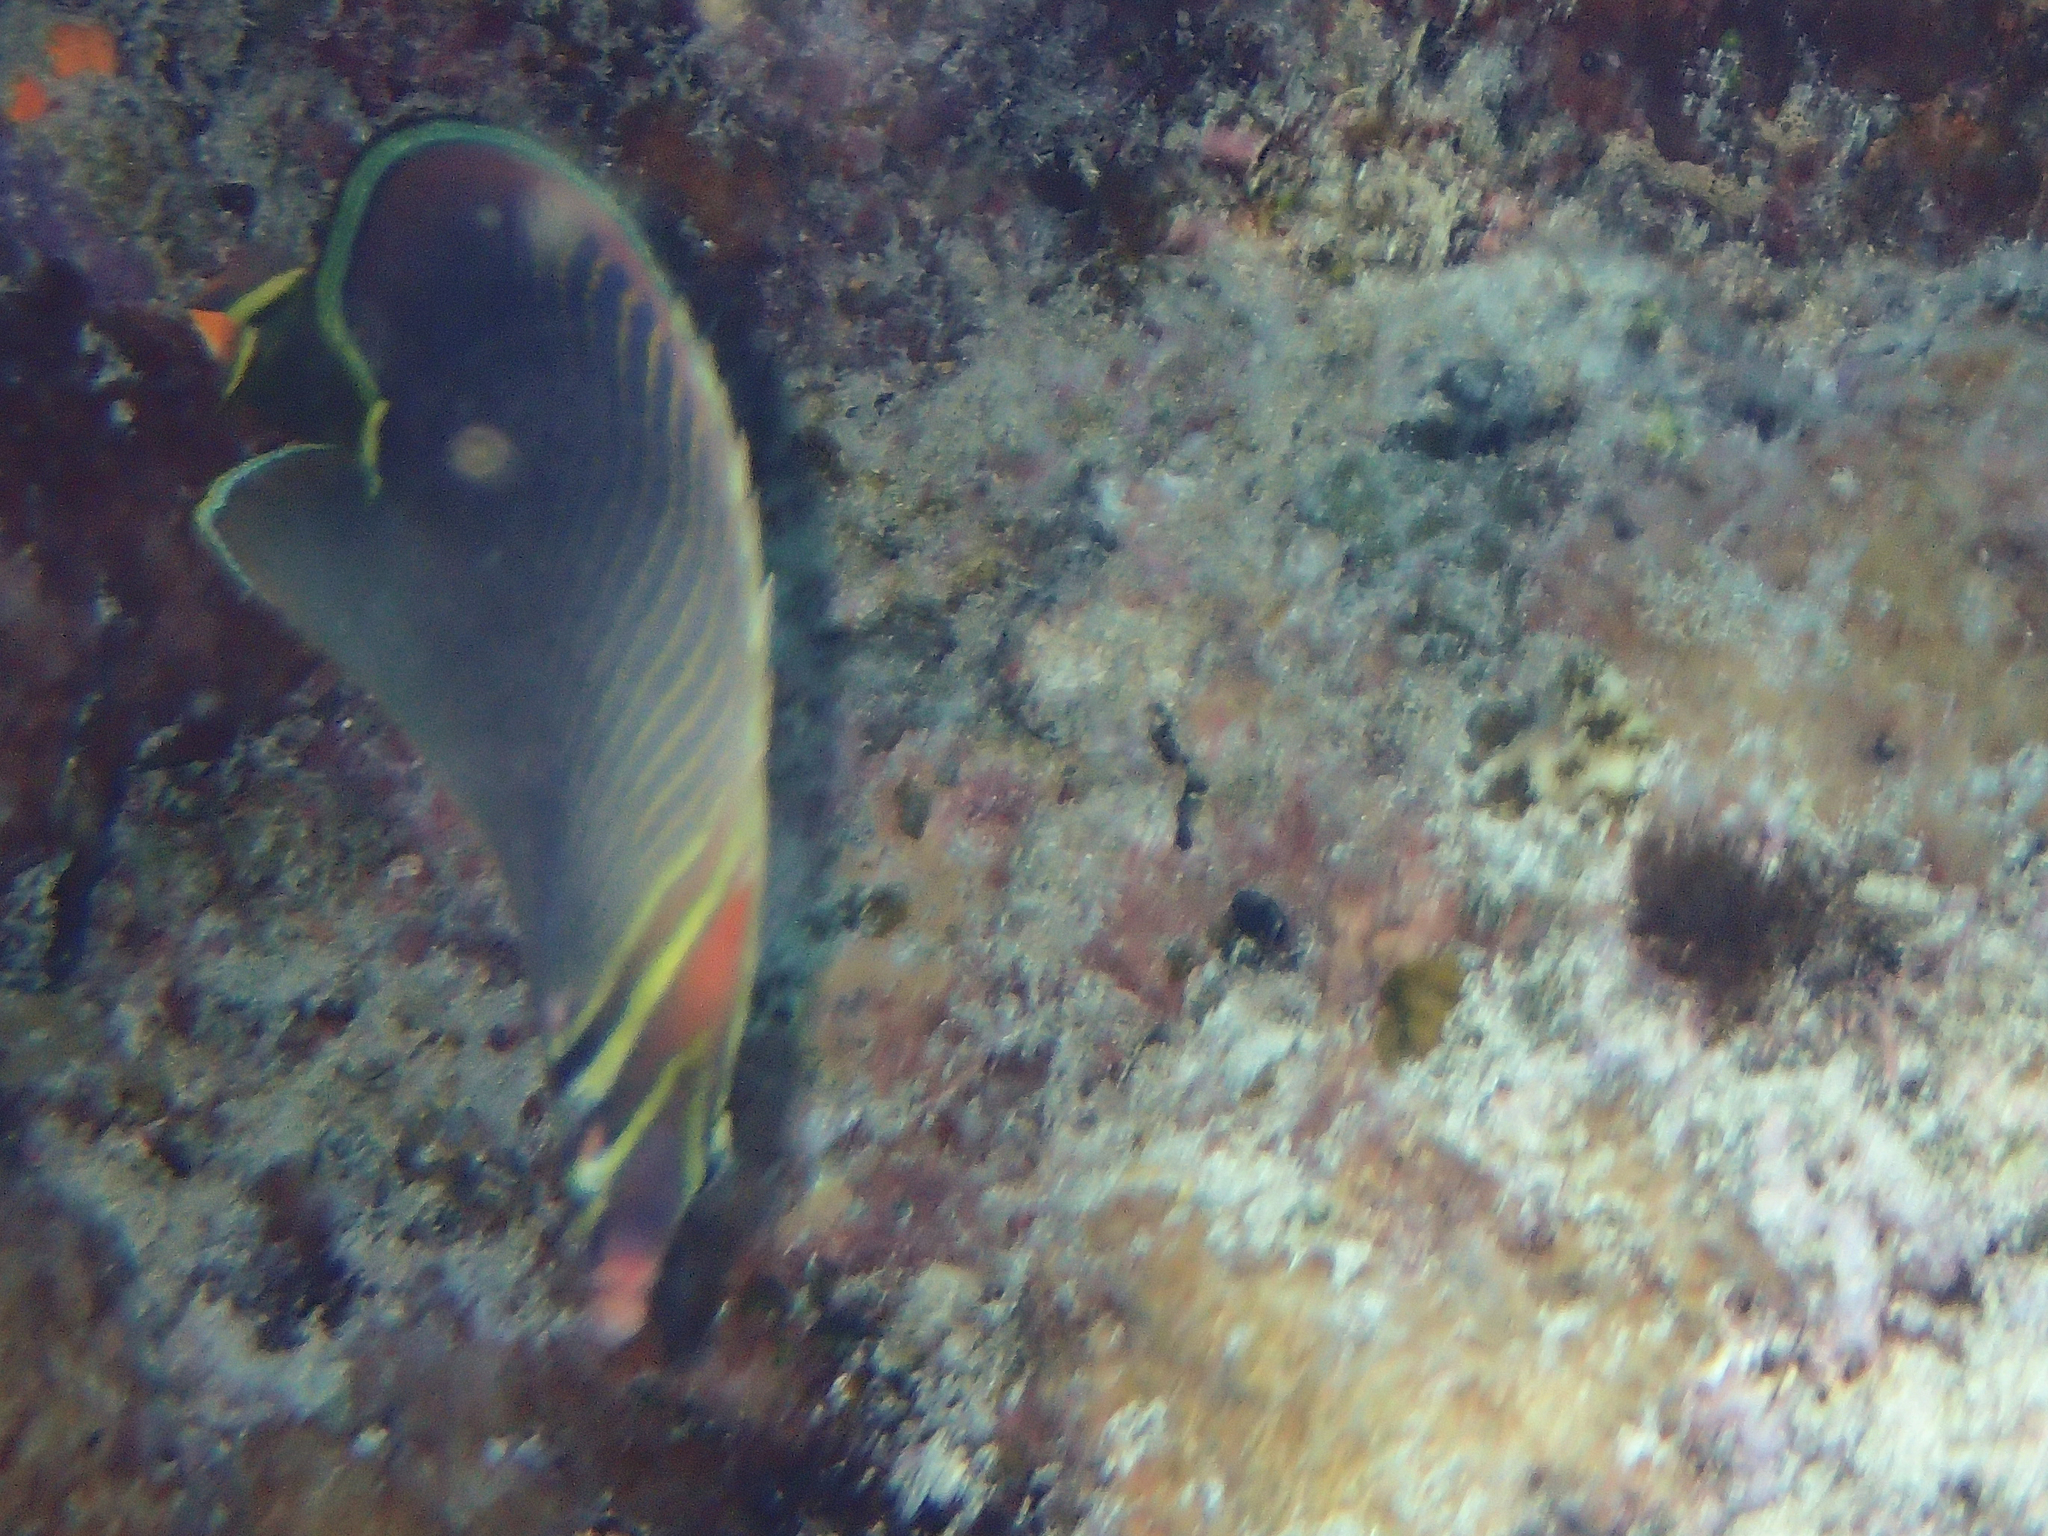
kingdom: Animalia
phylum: Chordata
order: Perciformes
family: Chaetodontidae
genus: Chaetodon
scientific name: Chaetodon baronessa
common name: Triangular butterflyfish
